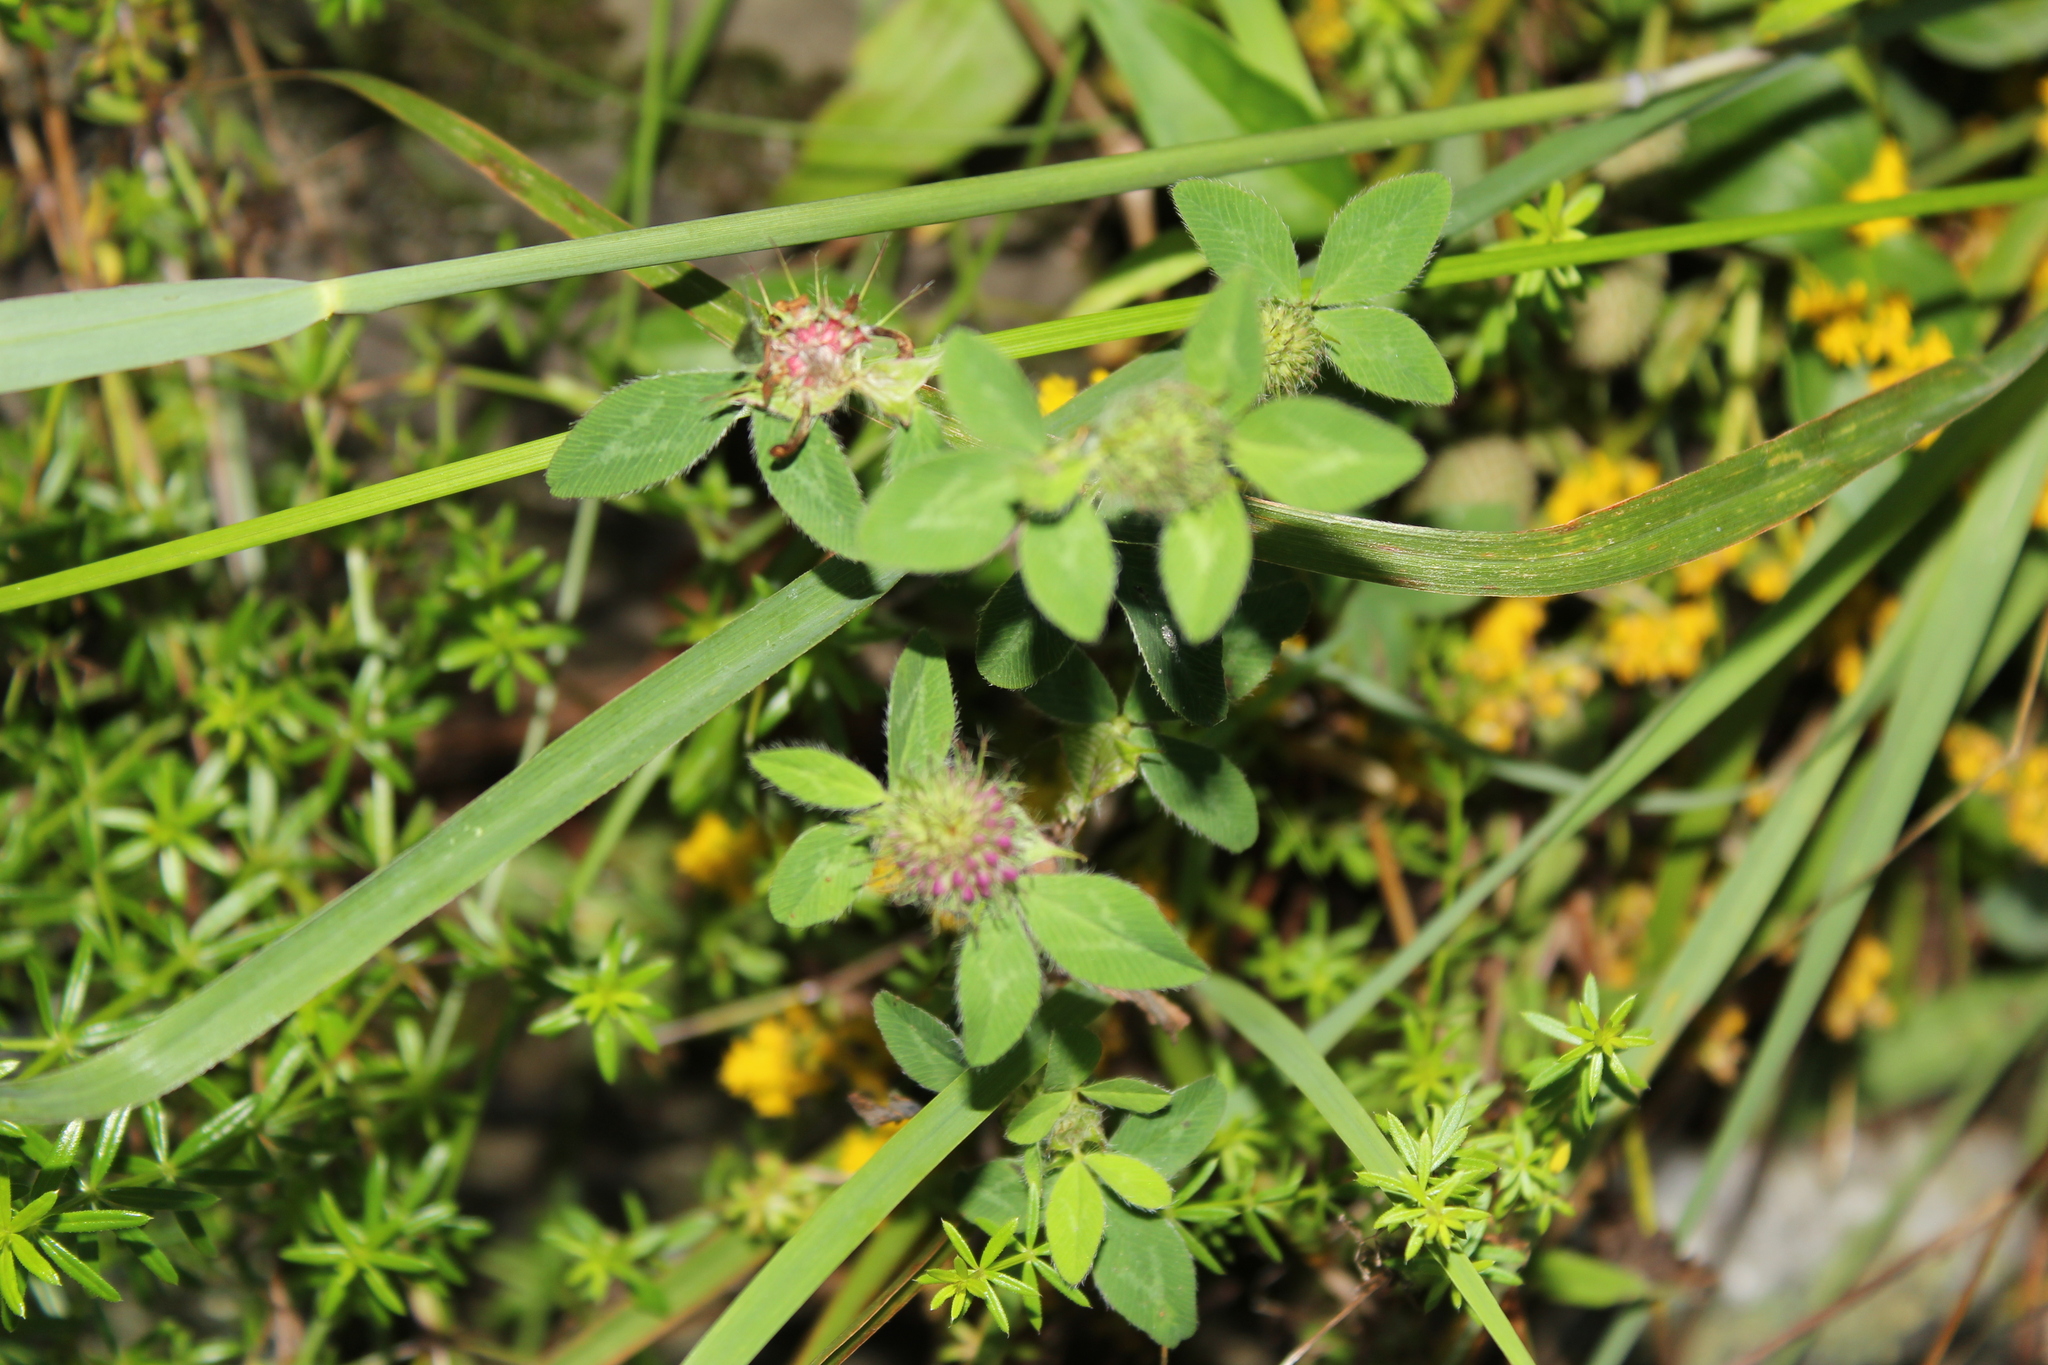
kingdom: Plantae
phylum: Tracheophyta
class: Magnoliopsida
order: Fabales
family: Fabaceae
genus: Trifolium
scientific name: Trifolium pratense
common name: Red clover
